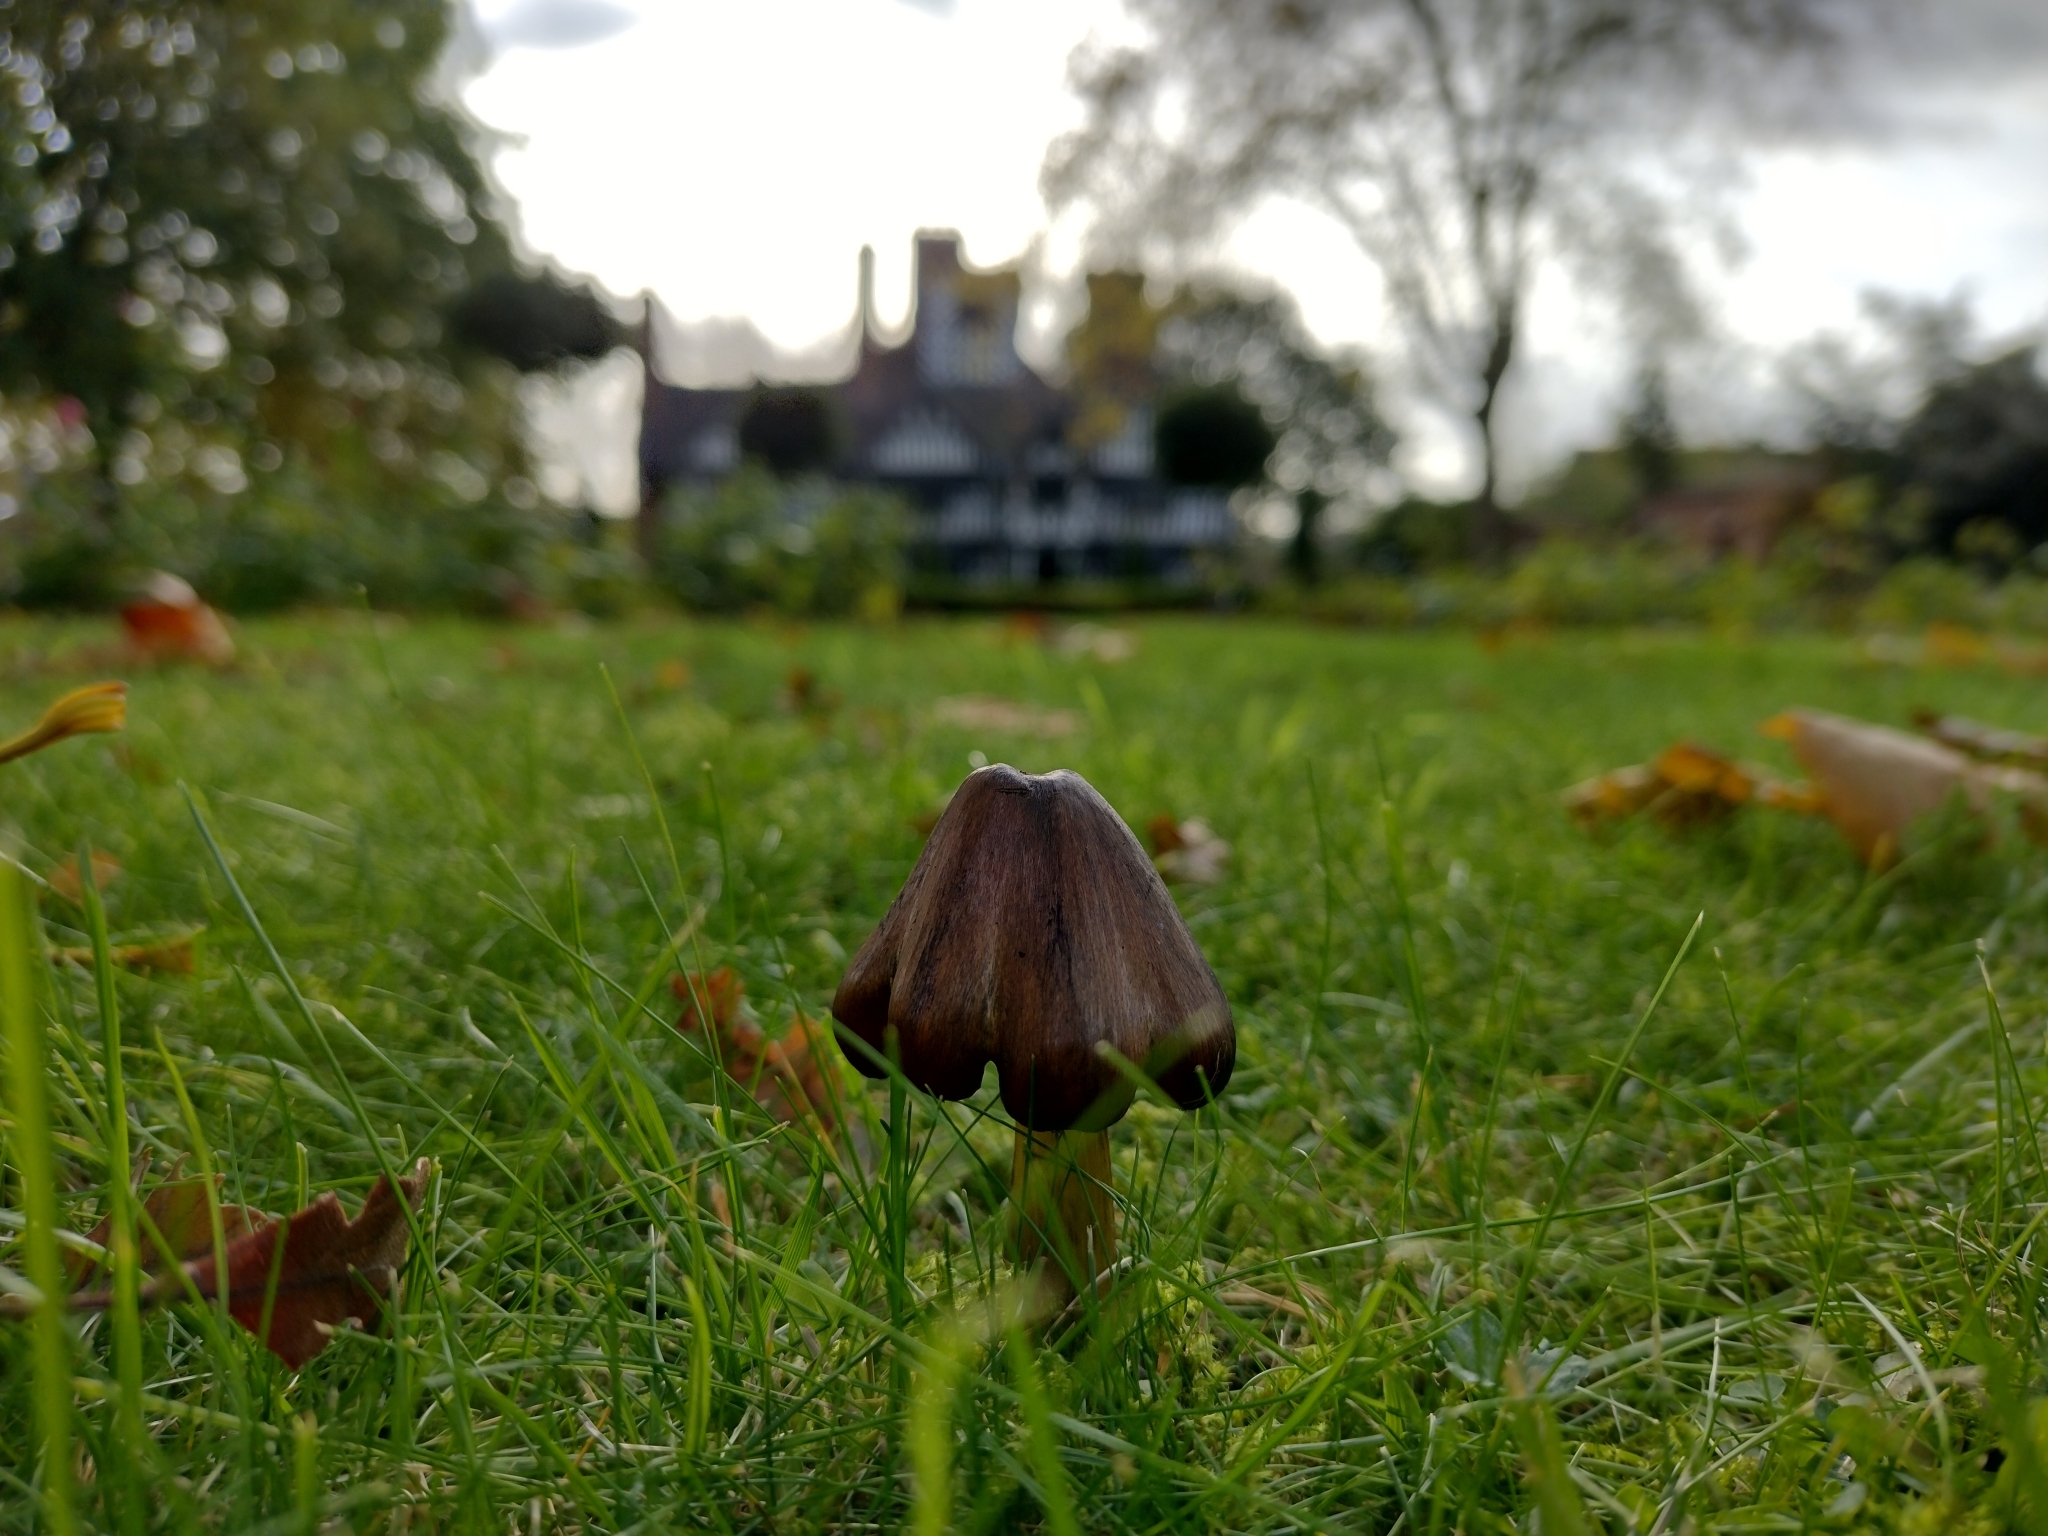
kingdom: Fungi
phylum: Basidiomycota
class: Agaricomycetes
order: Agaricales
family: Hygrophoraceae
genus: Hygrocybe
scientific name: Hygrocybe conica
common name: Blackening wax-cap
